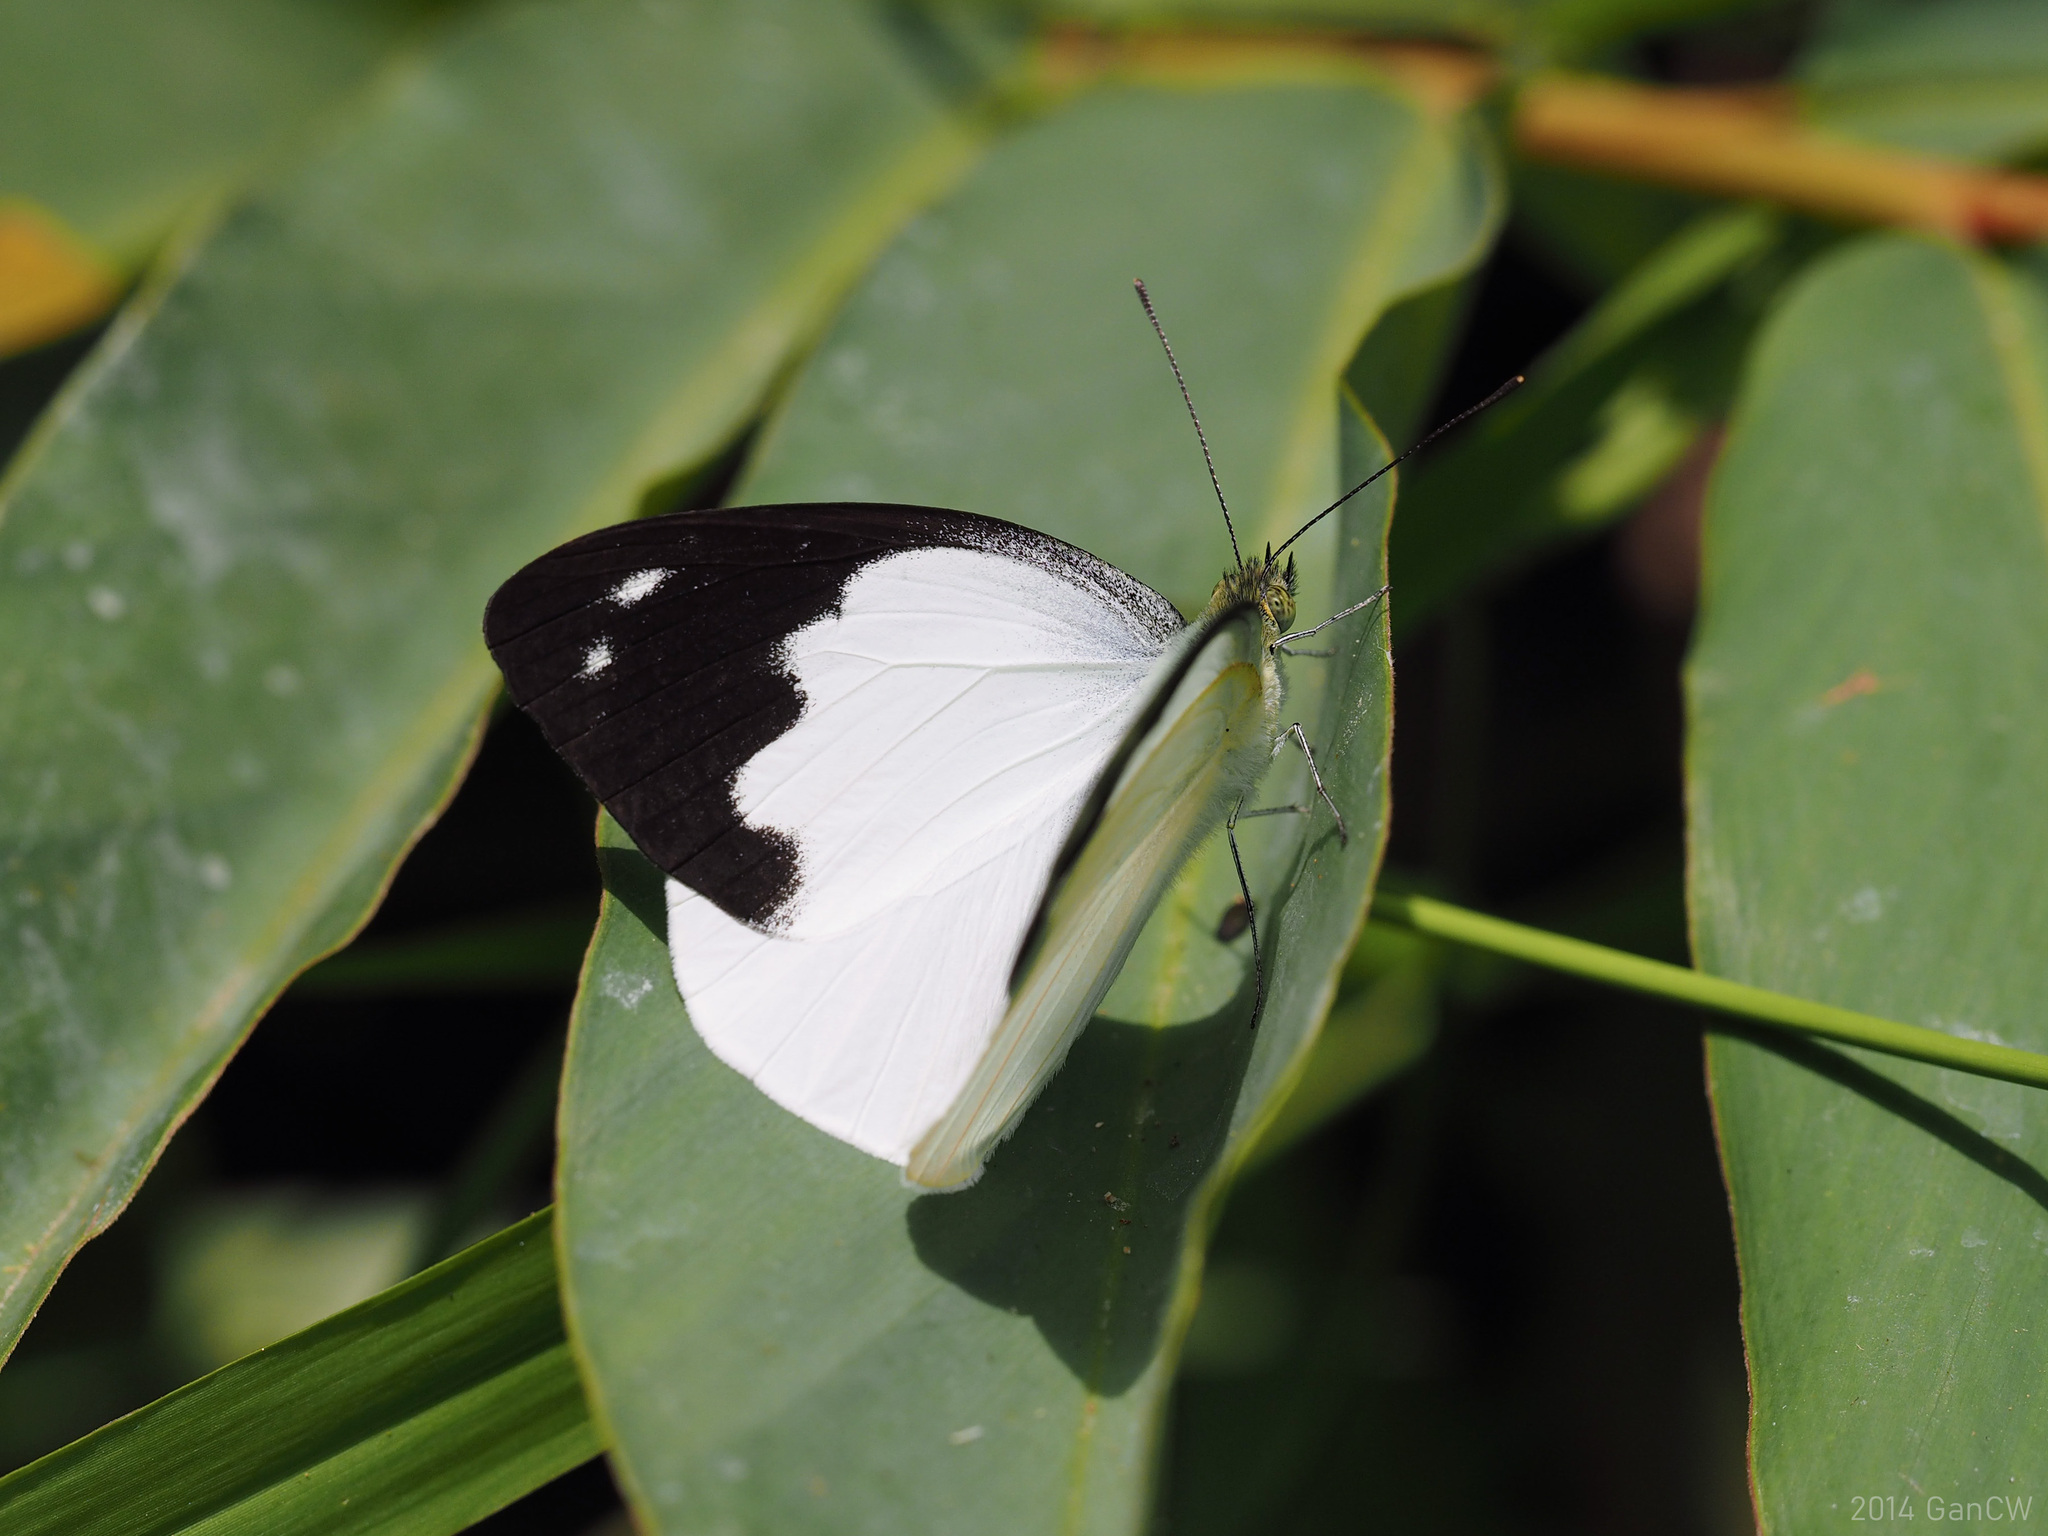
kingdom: Animalia
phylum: Arthropoda
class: Insecta
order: Lepidoptera
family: Pieridae
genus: Appias
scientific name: Appias indra
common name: Plain puffin
